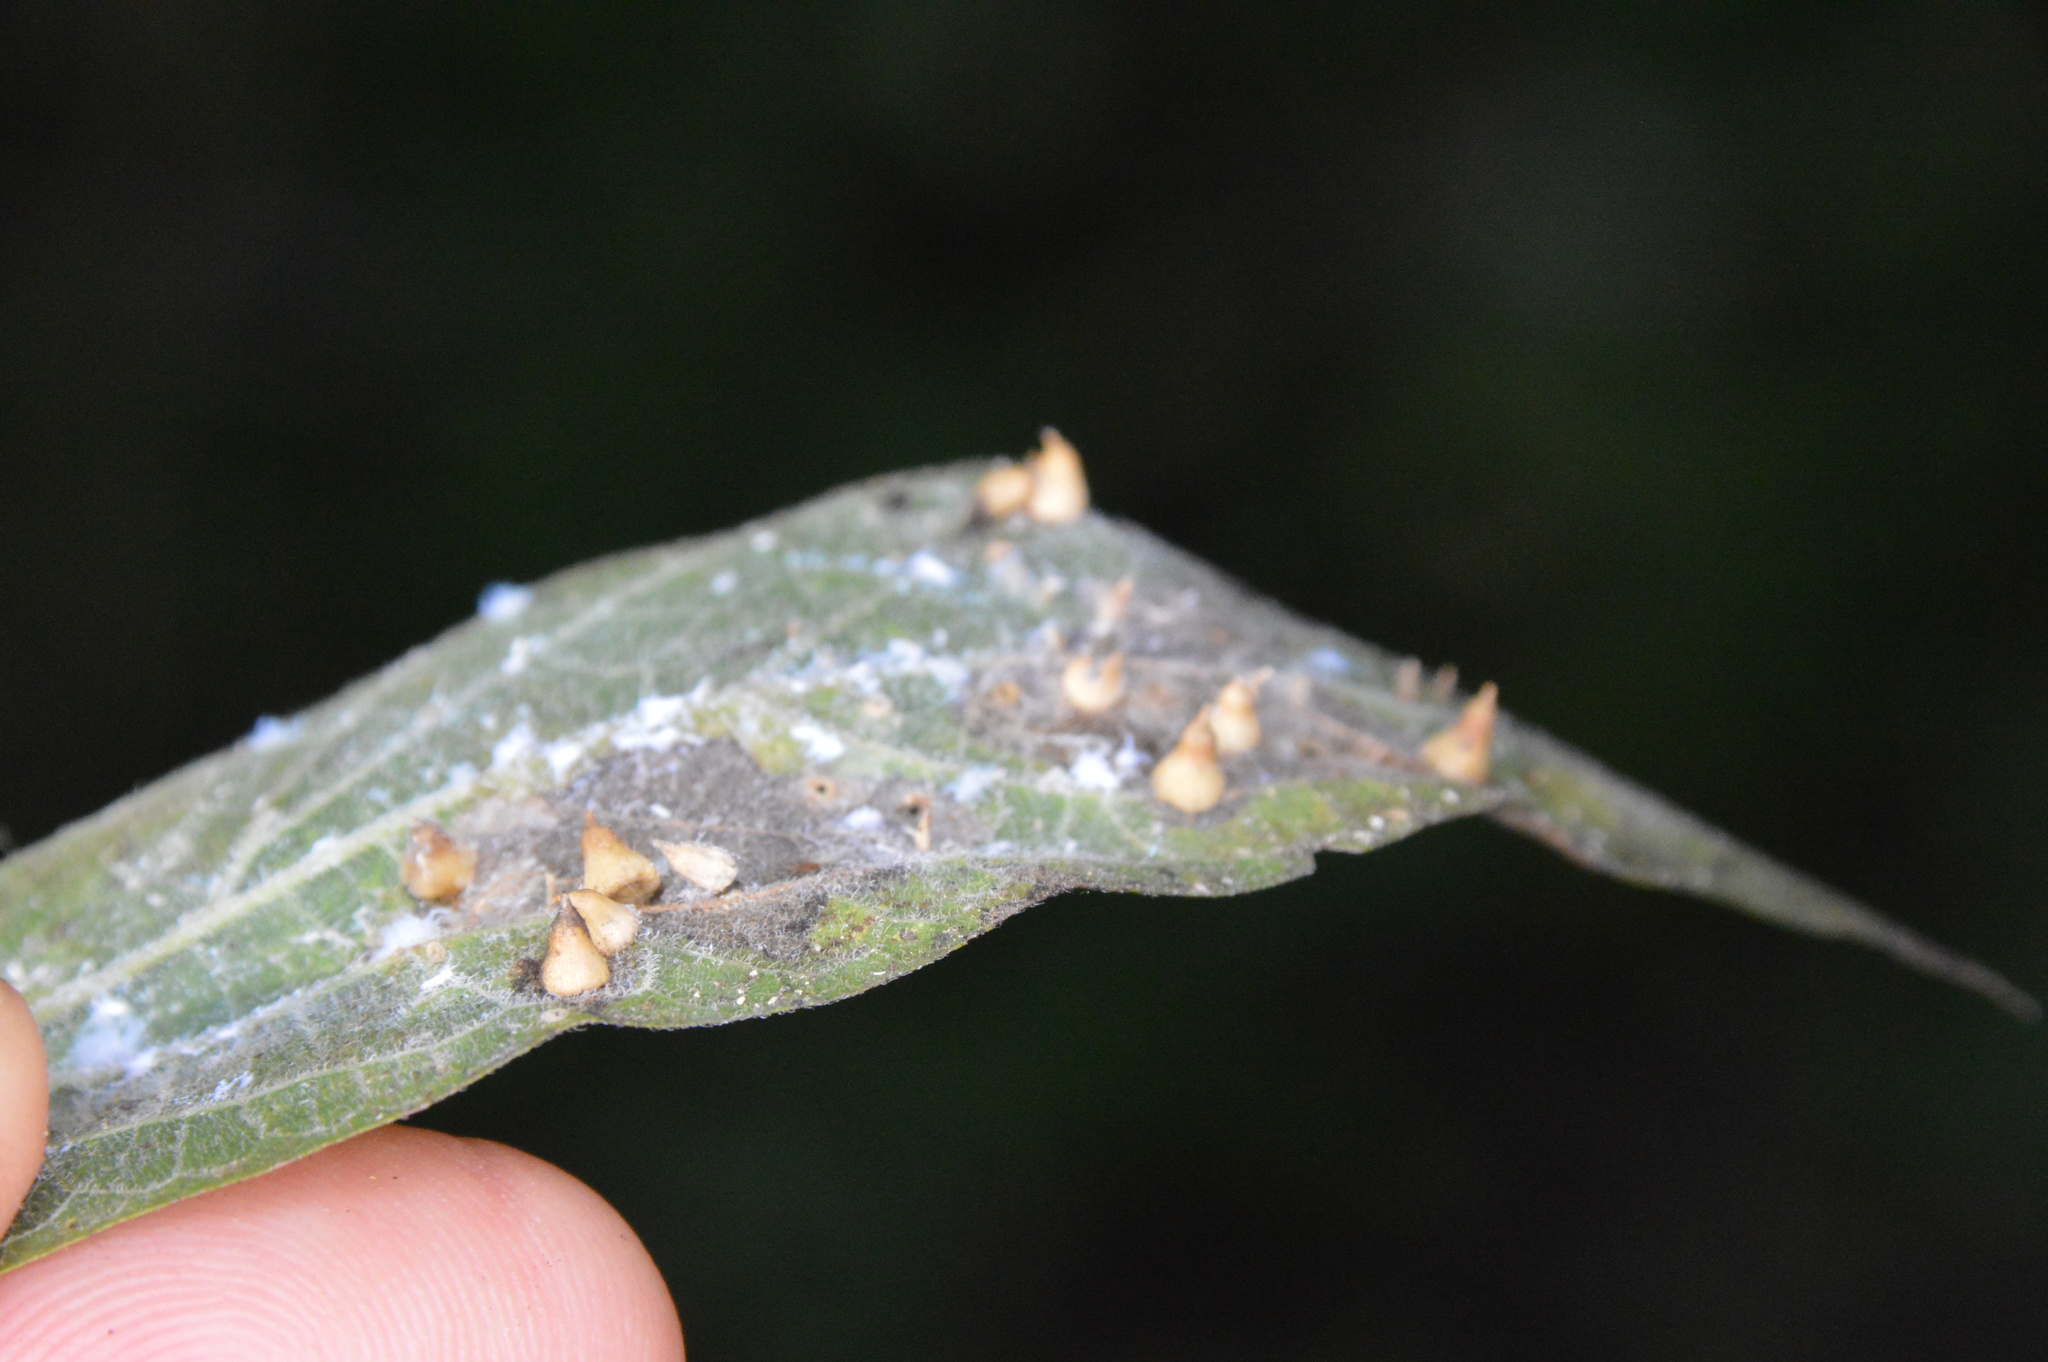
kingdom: Animalia
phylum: Arthropoda
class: Insecta
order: Diptera
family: Cecidomyiidae
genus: Celticecis
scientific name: Celticecis supina
